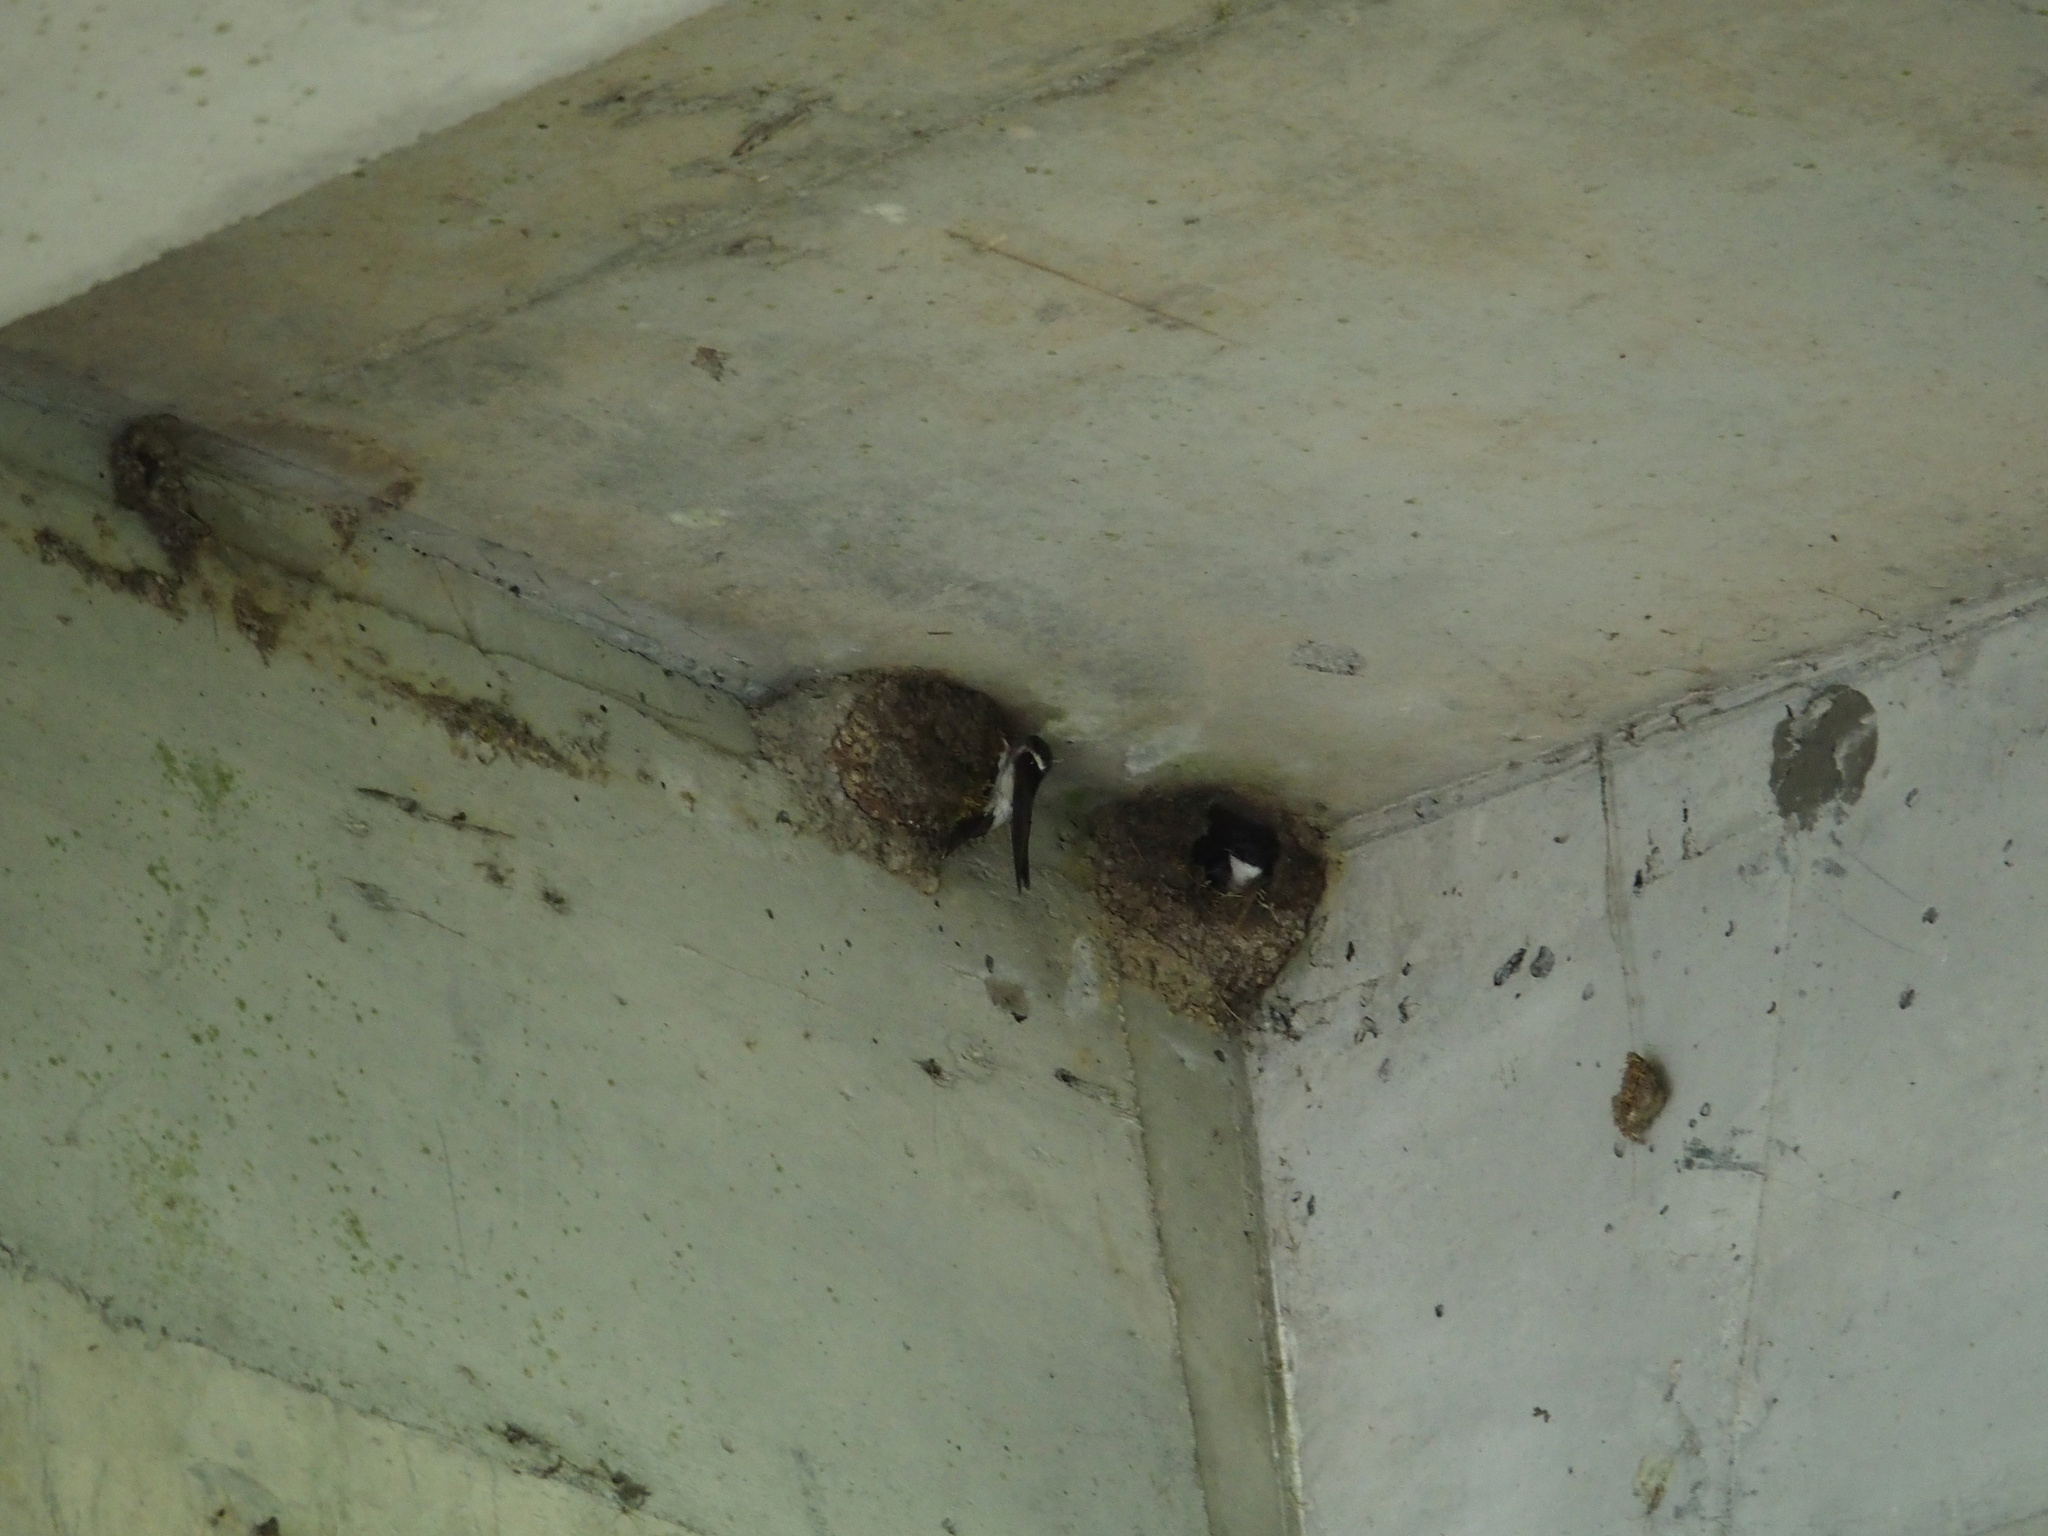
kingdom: Animalia
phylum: Chordata
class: Aves
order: Passeriformes
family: Hirundinidae
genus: Delichon
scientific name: Delichon dasypus
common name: Asian house martin
